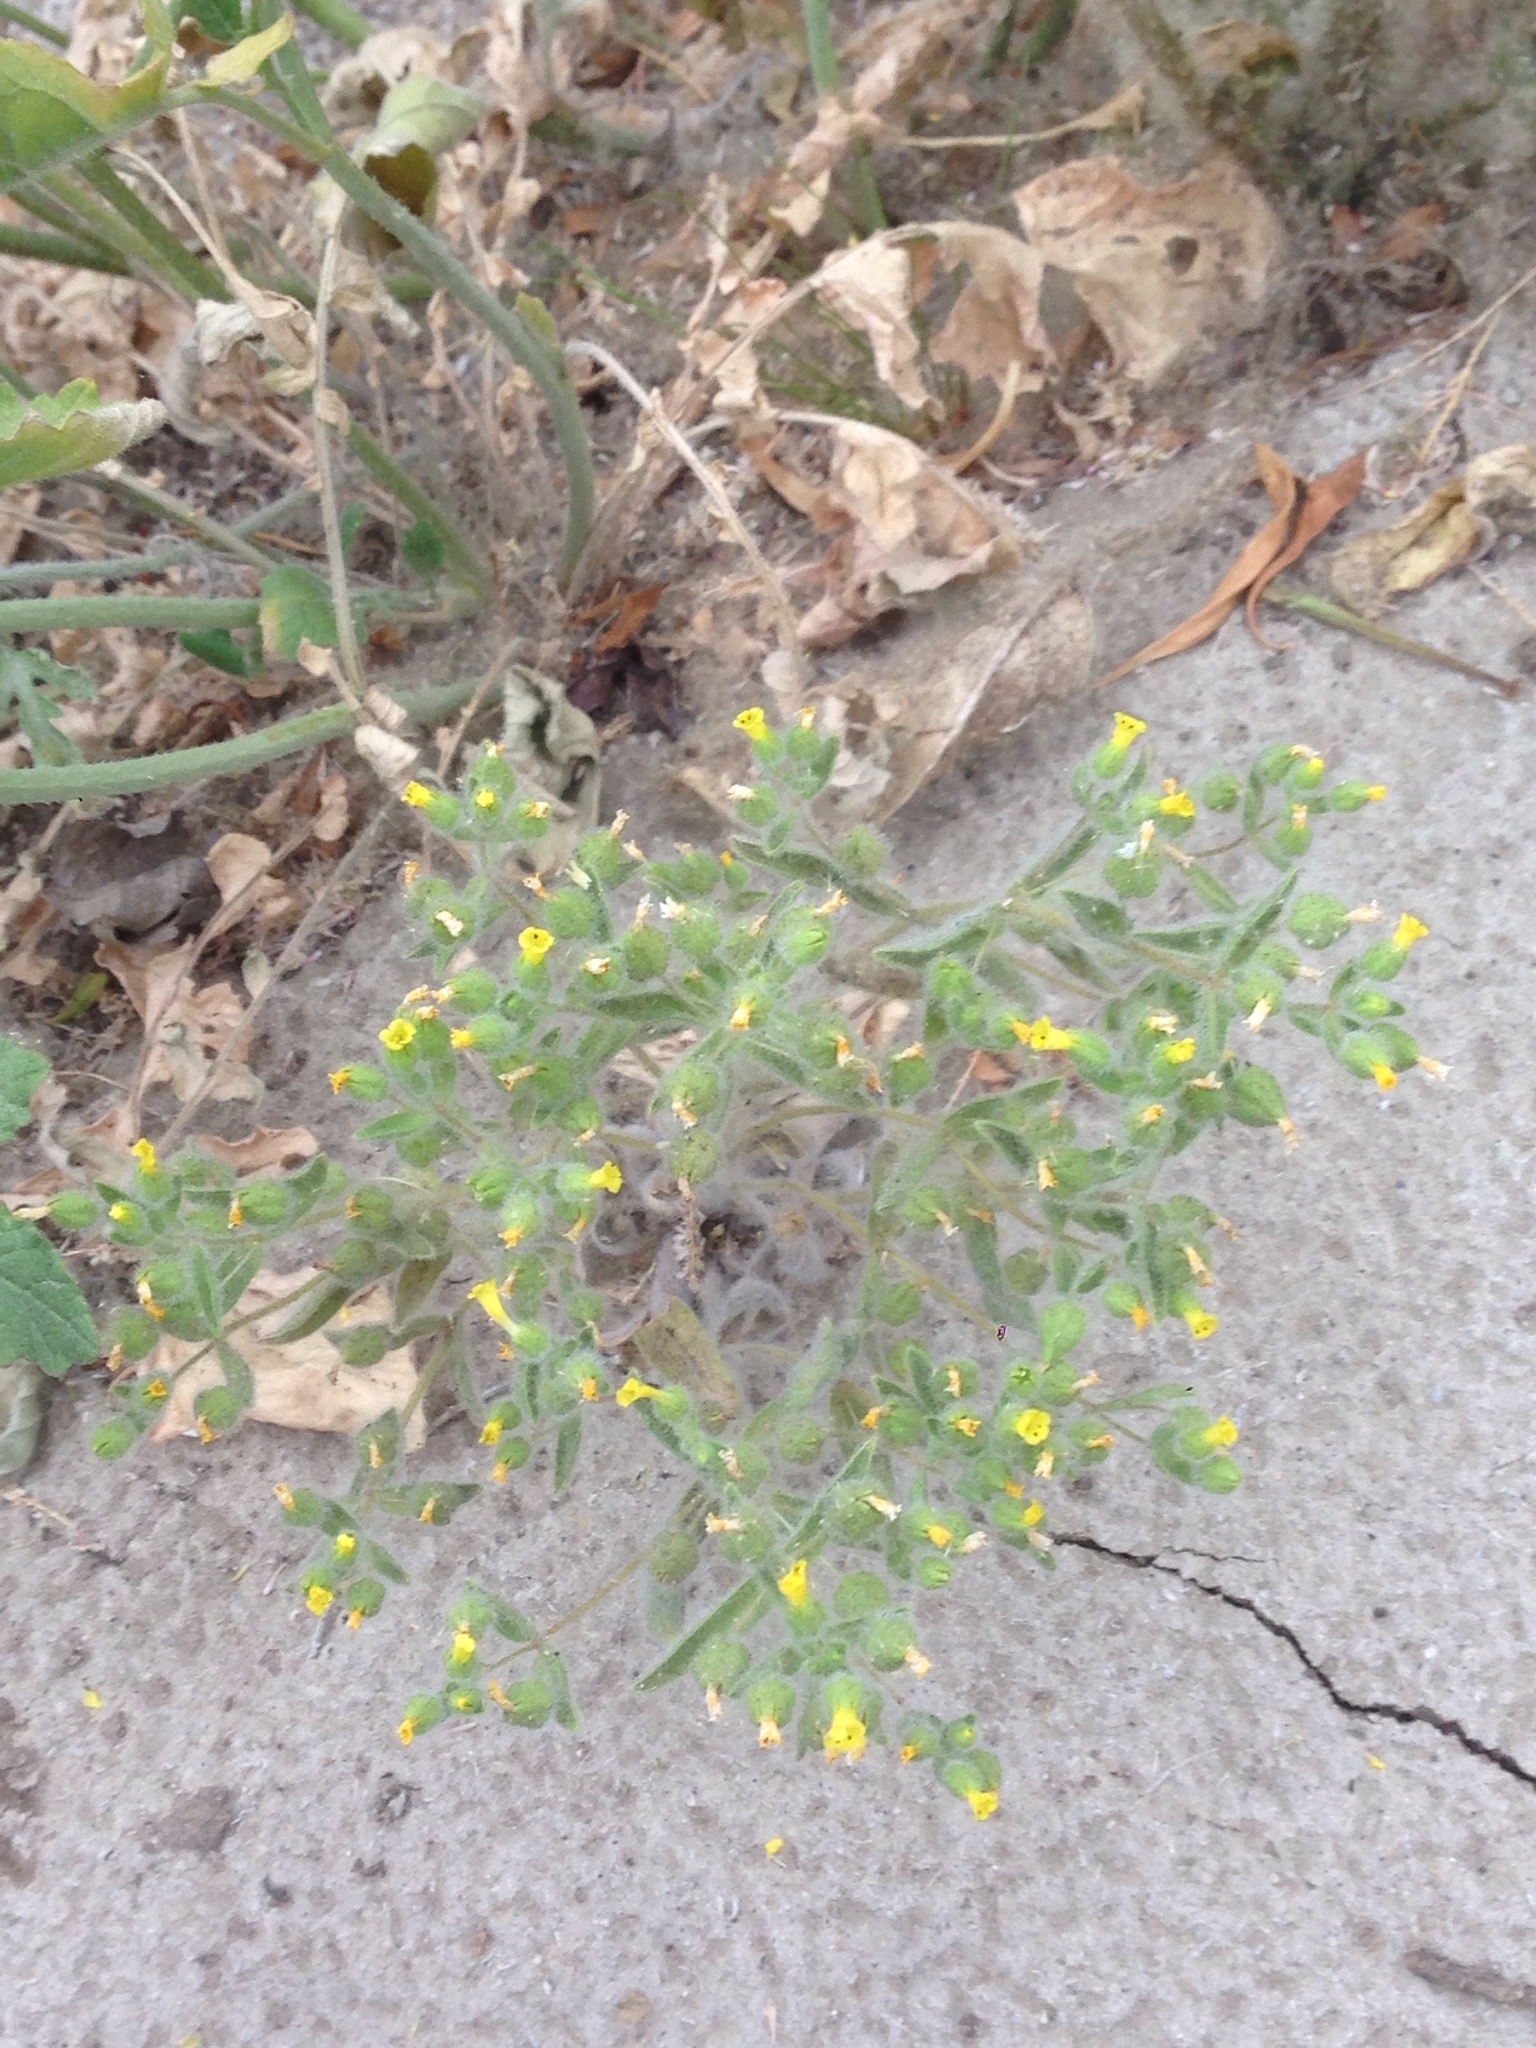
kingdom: Plantae
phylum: Tracheophyta
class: Magnoliopsida
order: Lamiales
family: Phrymaceae
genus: Mimetanthe
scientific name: Mimetanthe pilosa
